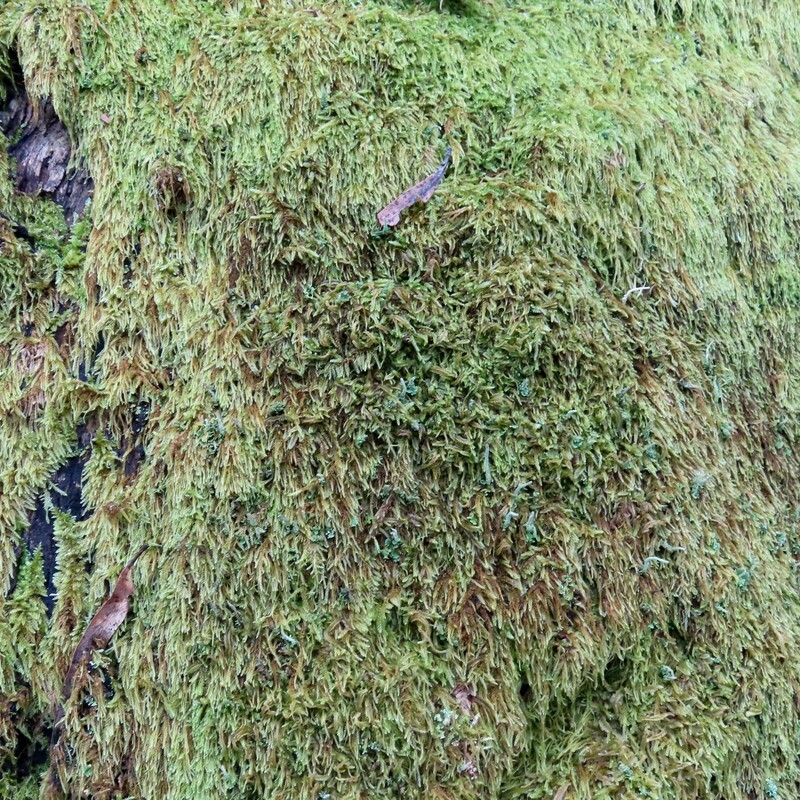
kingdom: Plantae
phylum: Bryophyta
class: Bryopsida
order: Hypnales
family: Hypnaceae
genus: Hypnum
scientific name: Hypnum cupressiforme
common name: Cypress-leaved plait-moss
